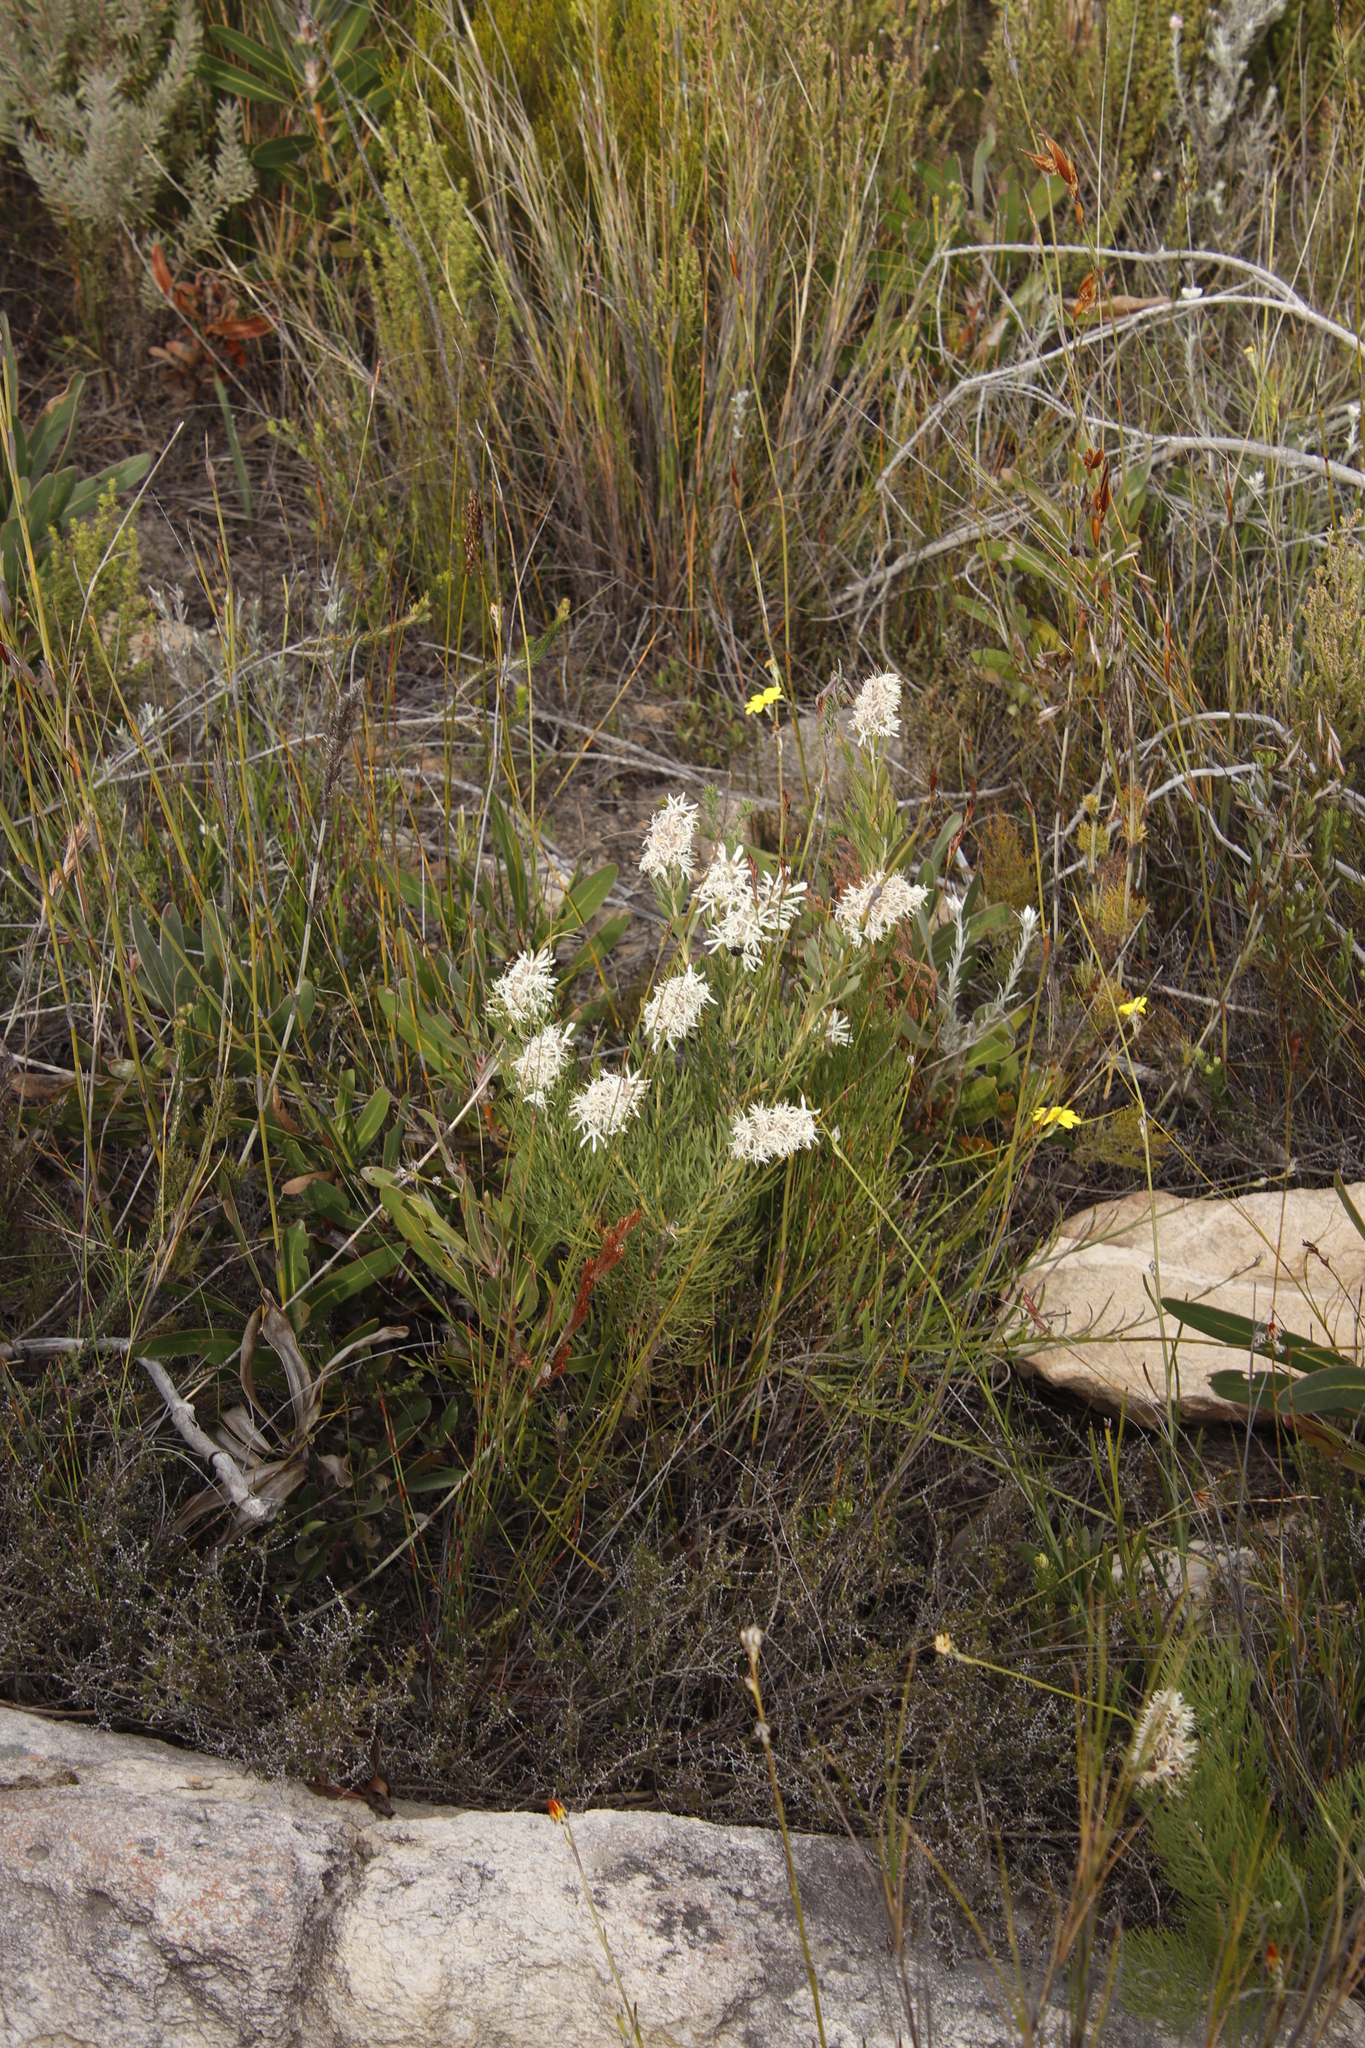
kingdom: Plantae
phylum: Tracheophyta
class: Magnoliopsida
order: Proteales
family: Proteaceae
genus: Paranomus
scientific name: Paranomus dregei
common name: Scented sceptre
